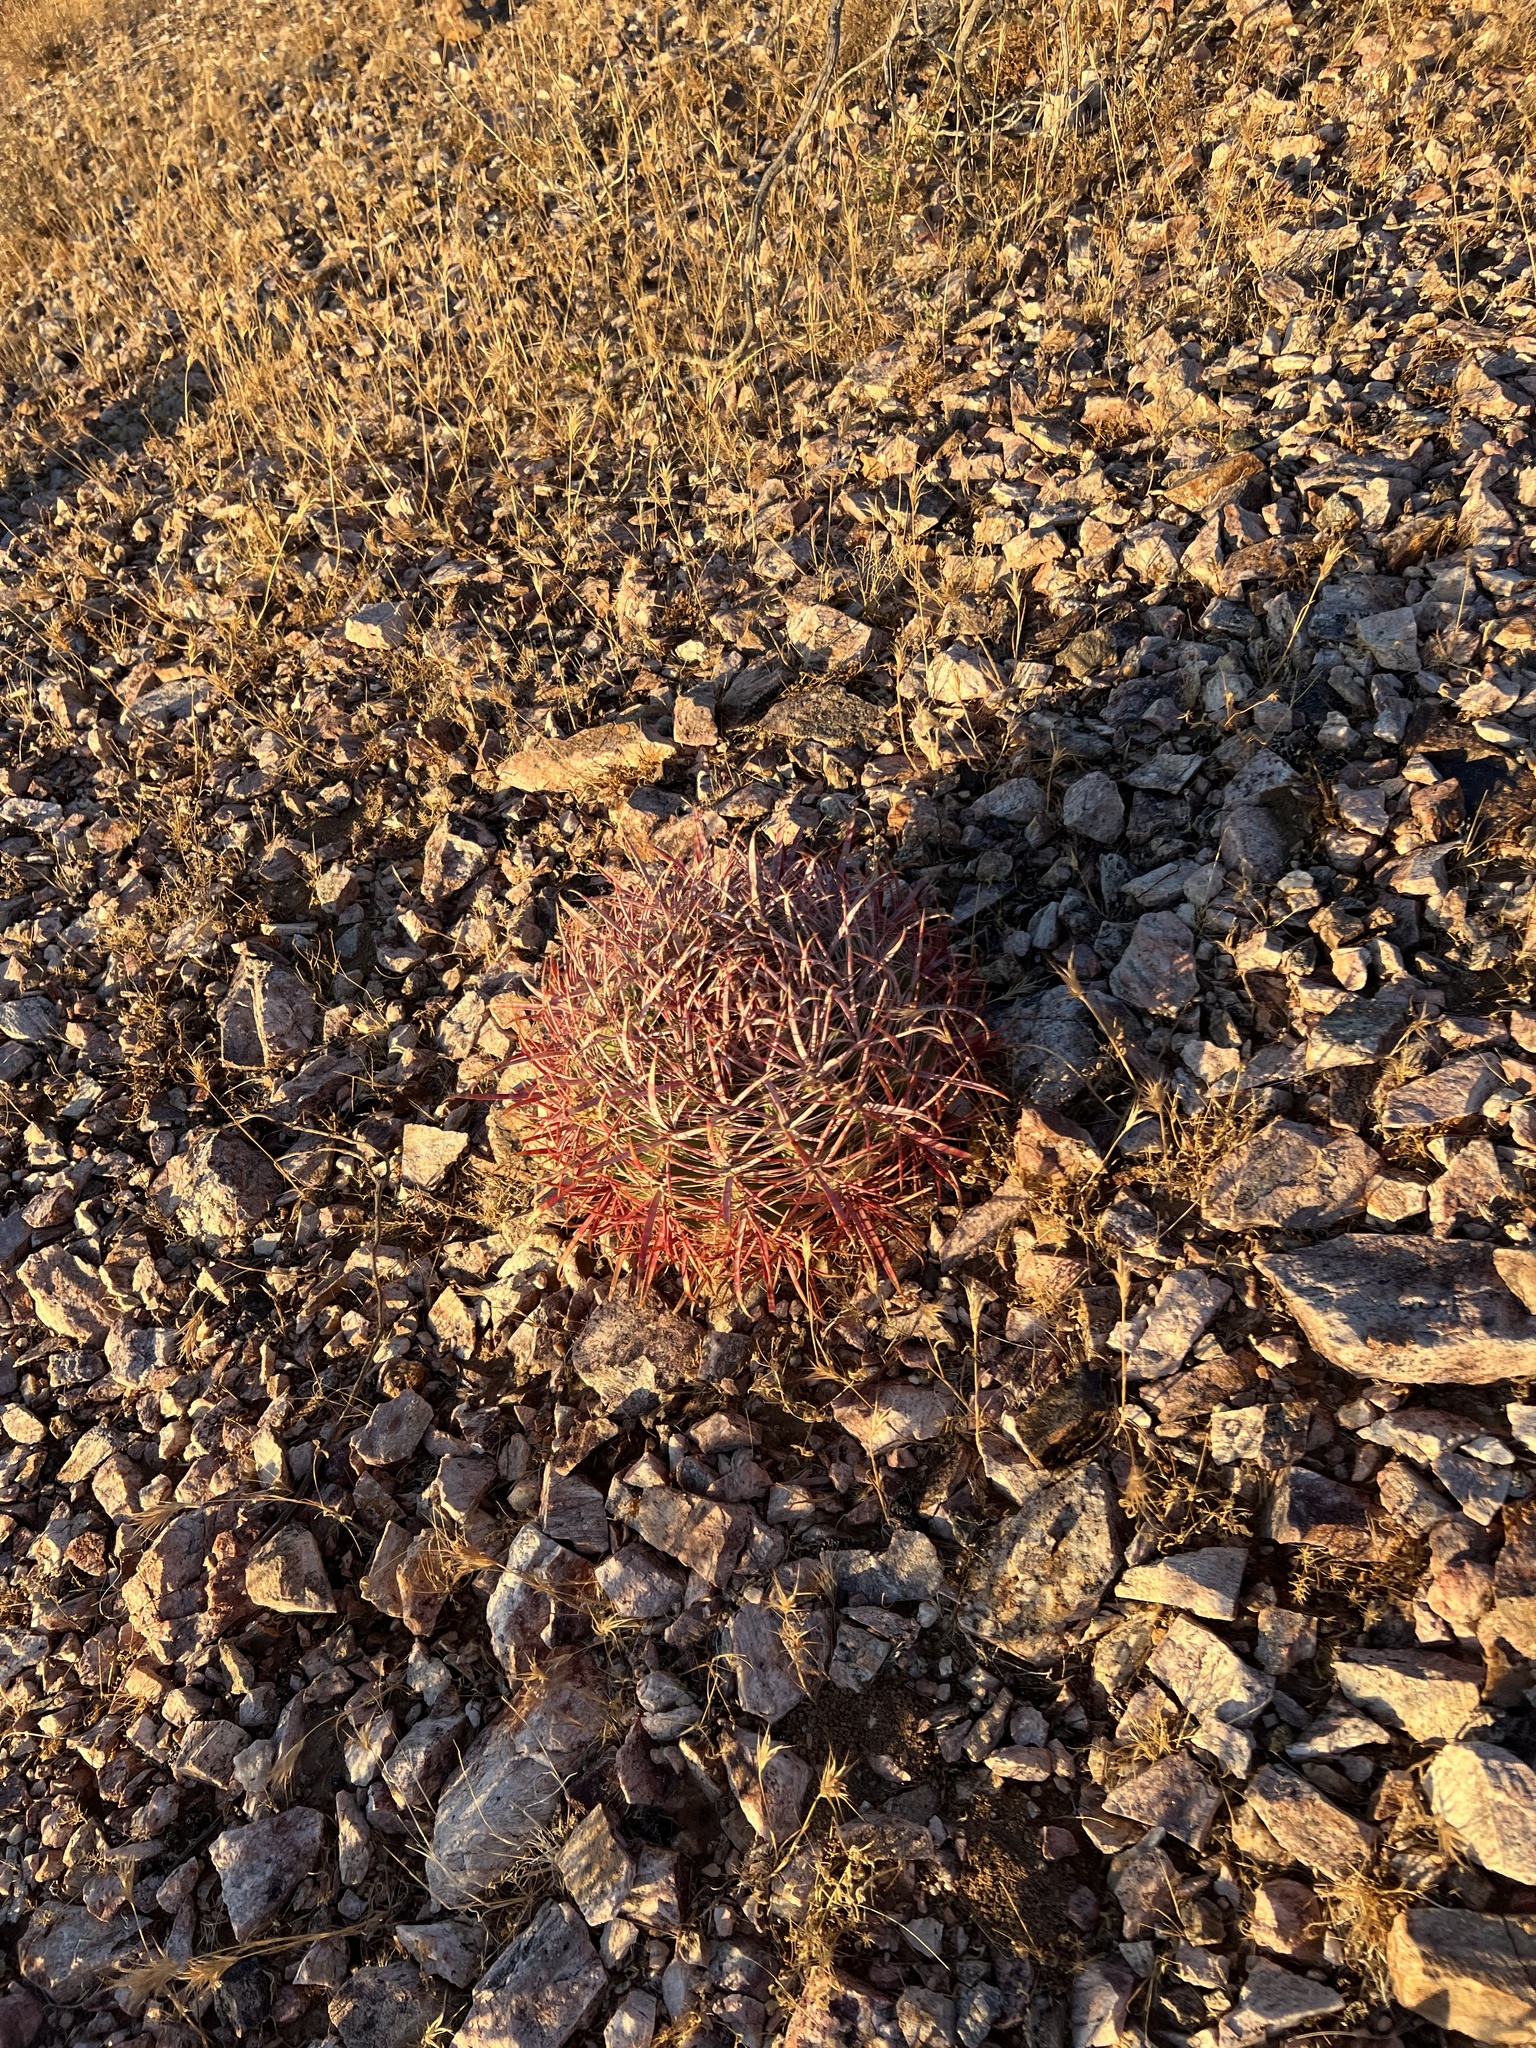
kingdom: Plantae
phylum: Tracheophyta
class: Magnoliopsida
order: Caryophyllales
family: Cactaceae
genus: Ferocactus
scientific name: Ferocactus cylindraceus
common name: California barrel cactus
